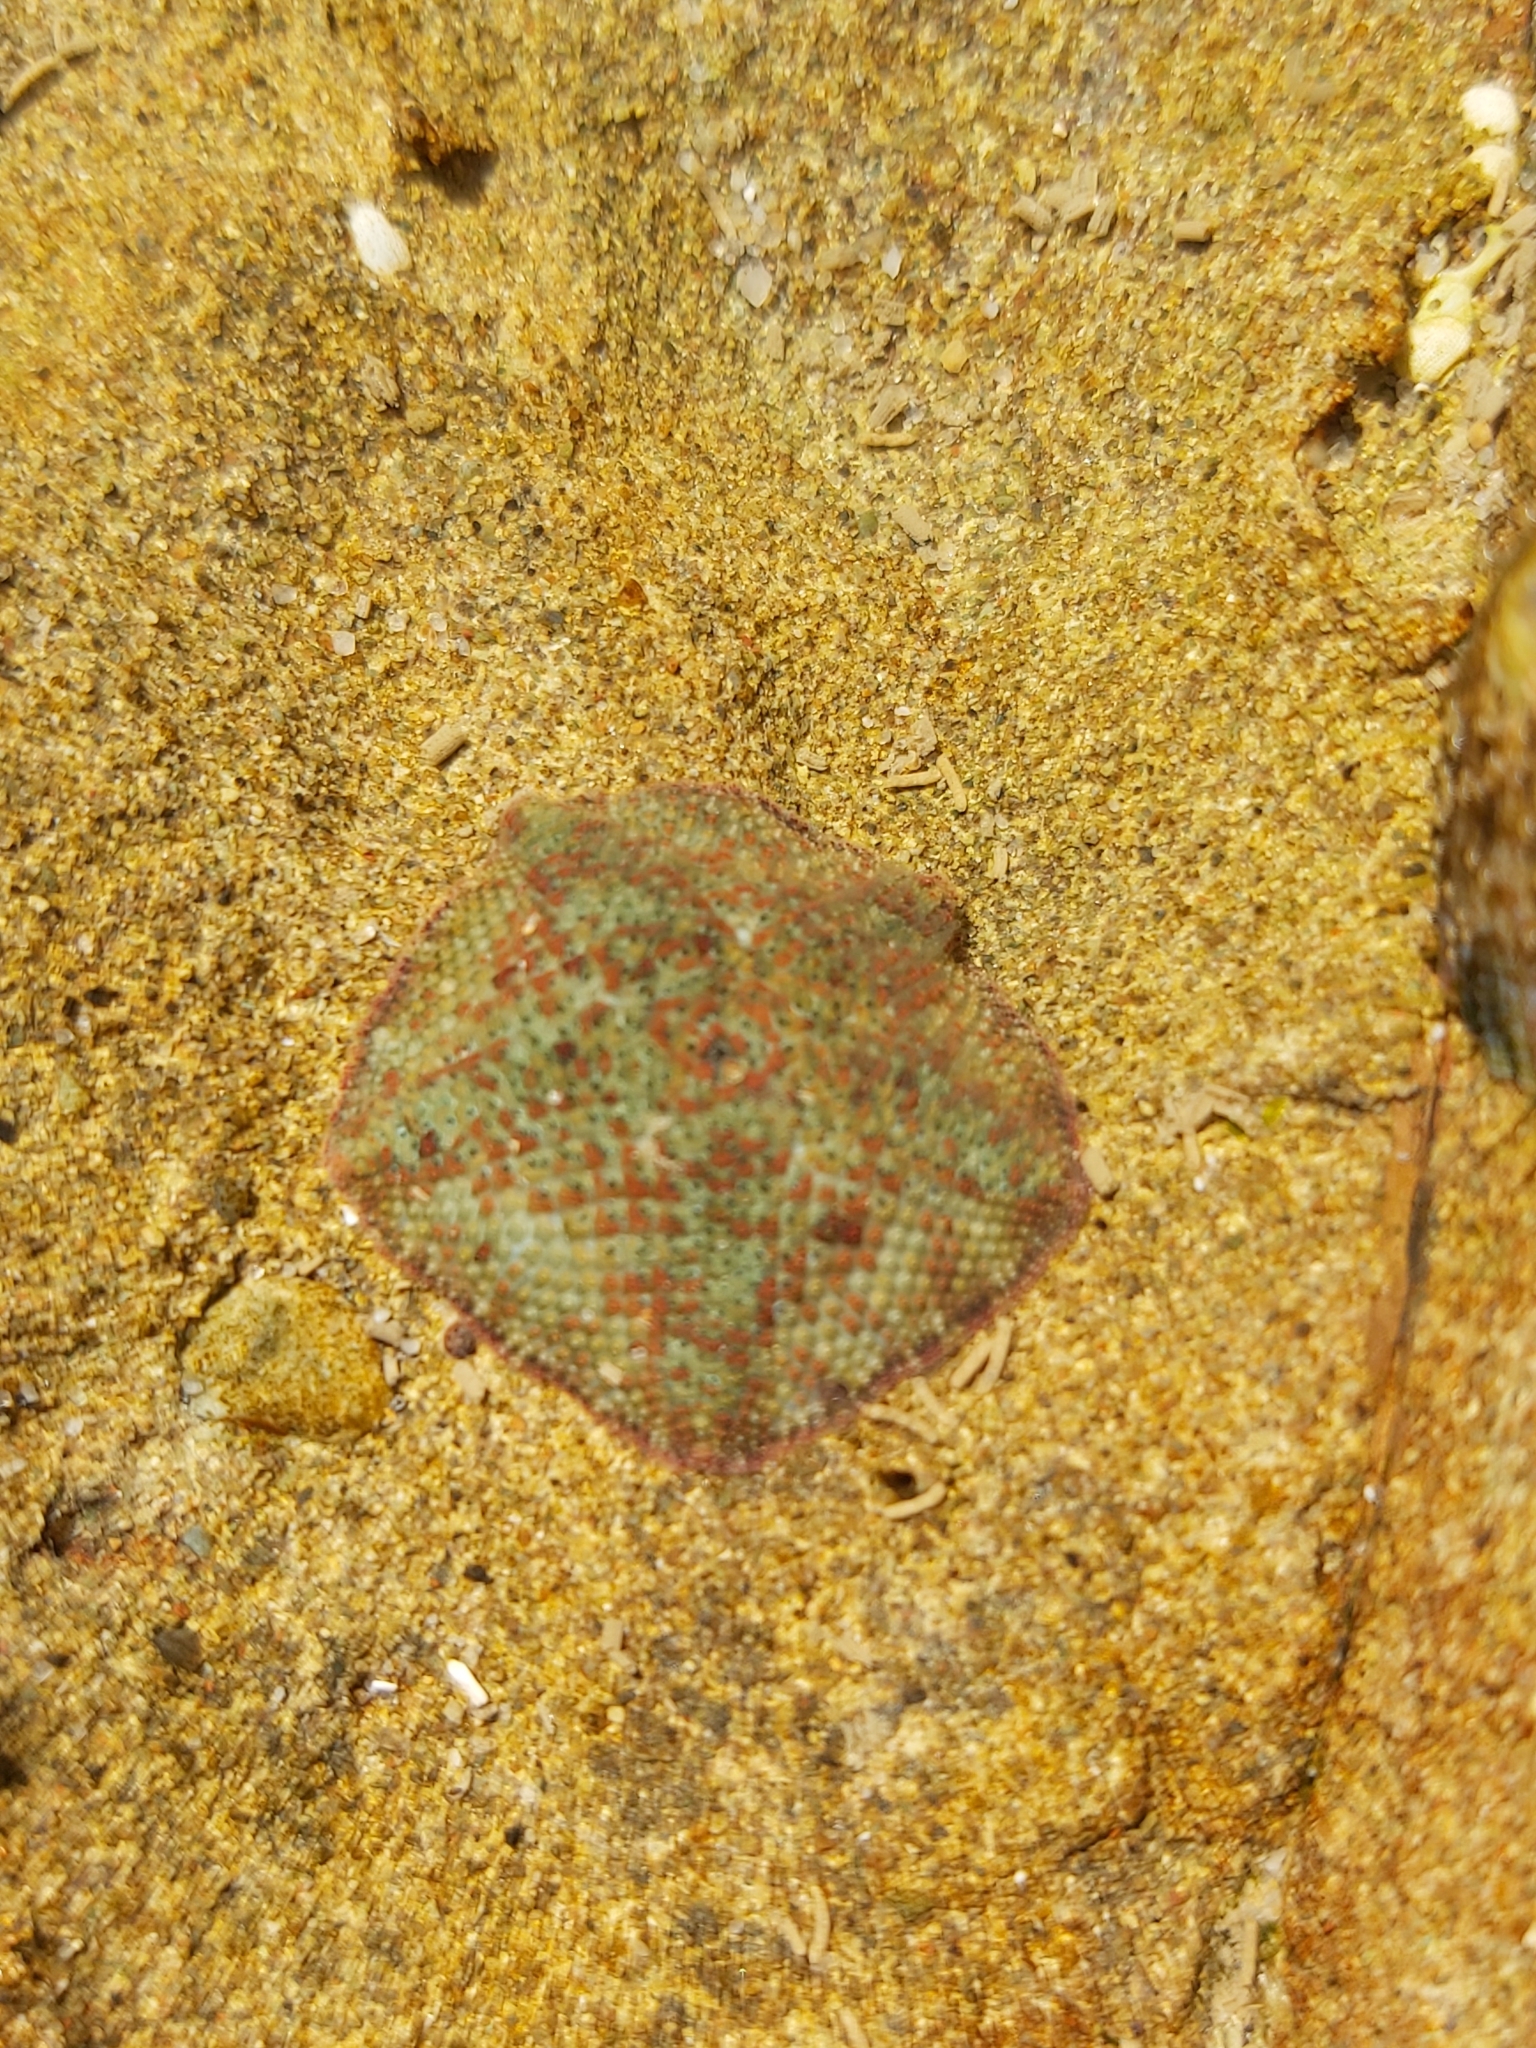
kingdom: Animalia
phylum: Echinodermata
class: Asteroidea
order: Valvatida
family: Asterinidae
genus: Parvulastra
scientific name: Parvulastra exigua
